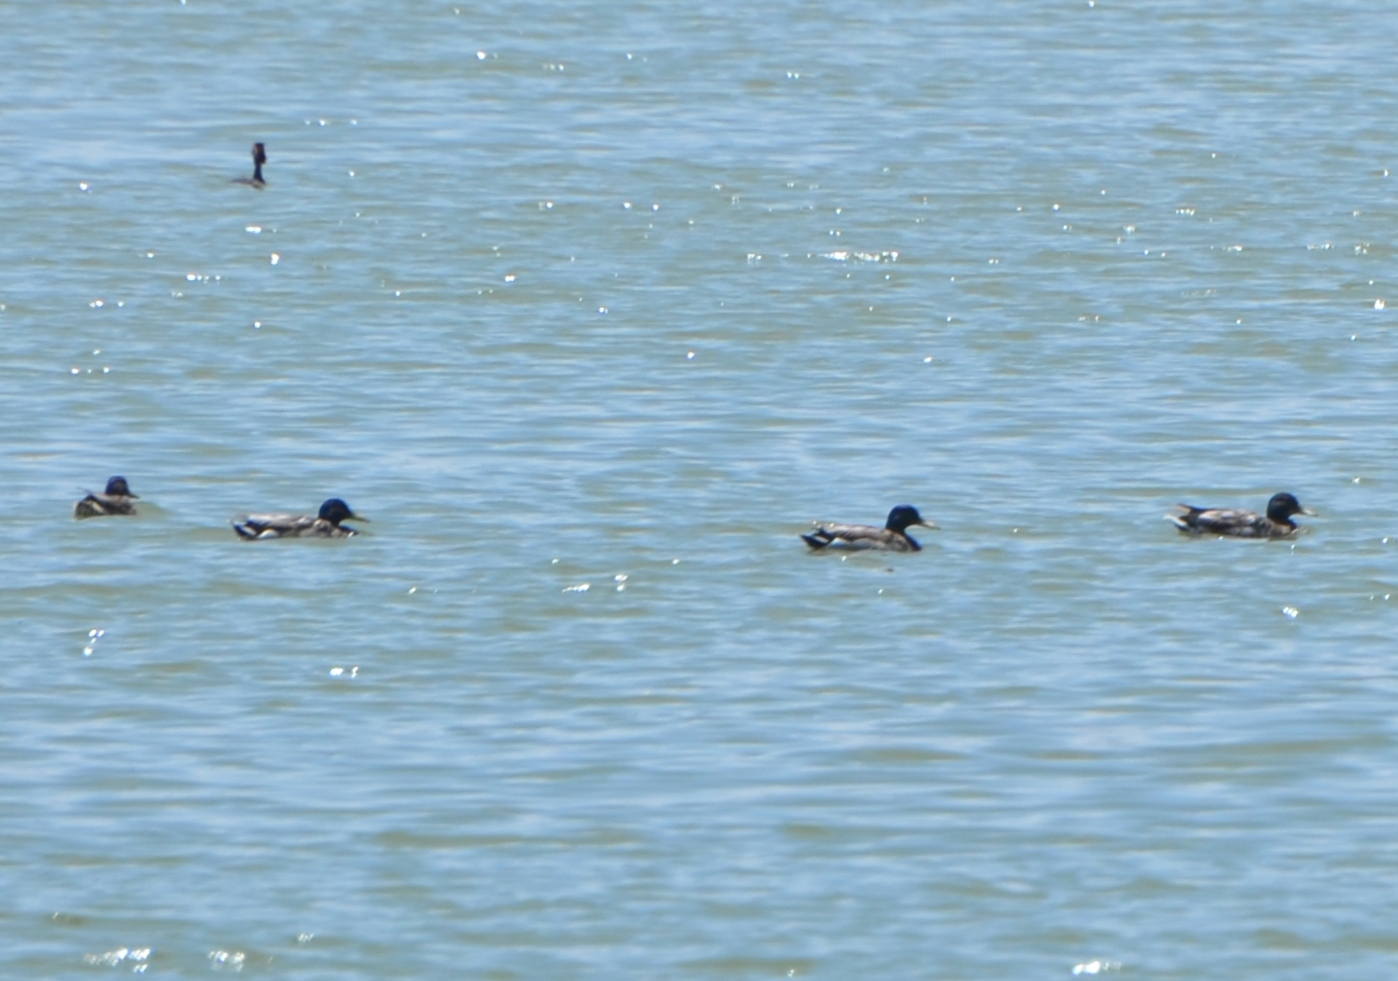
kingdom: Animalia
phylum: Chordata
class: Aves
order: Anseriformes
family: Anatidae
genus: Anas
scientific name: Anas platyrhynchos
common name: Mallard
